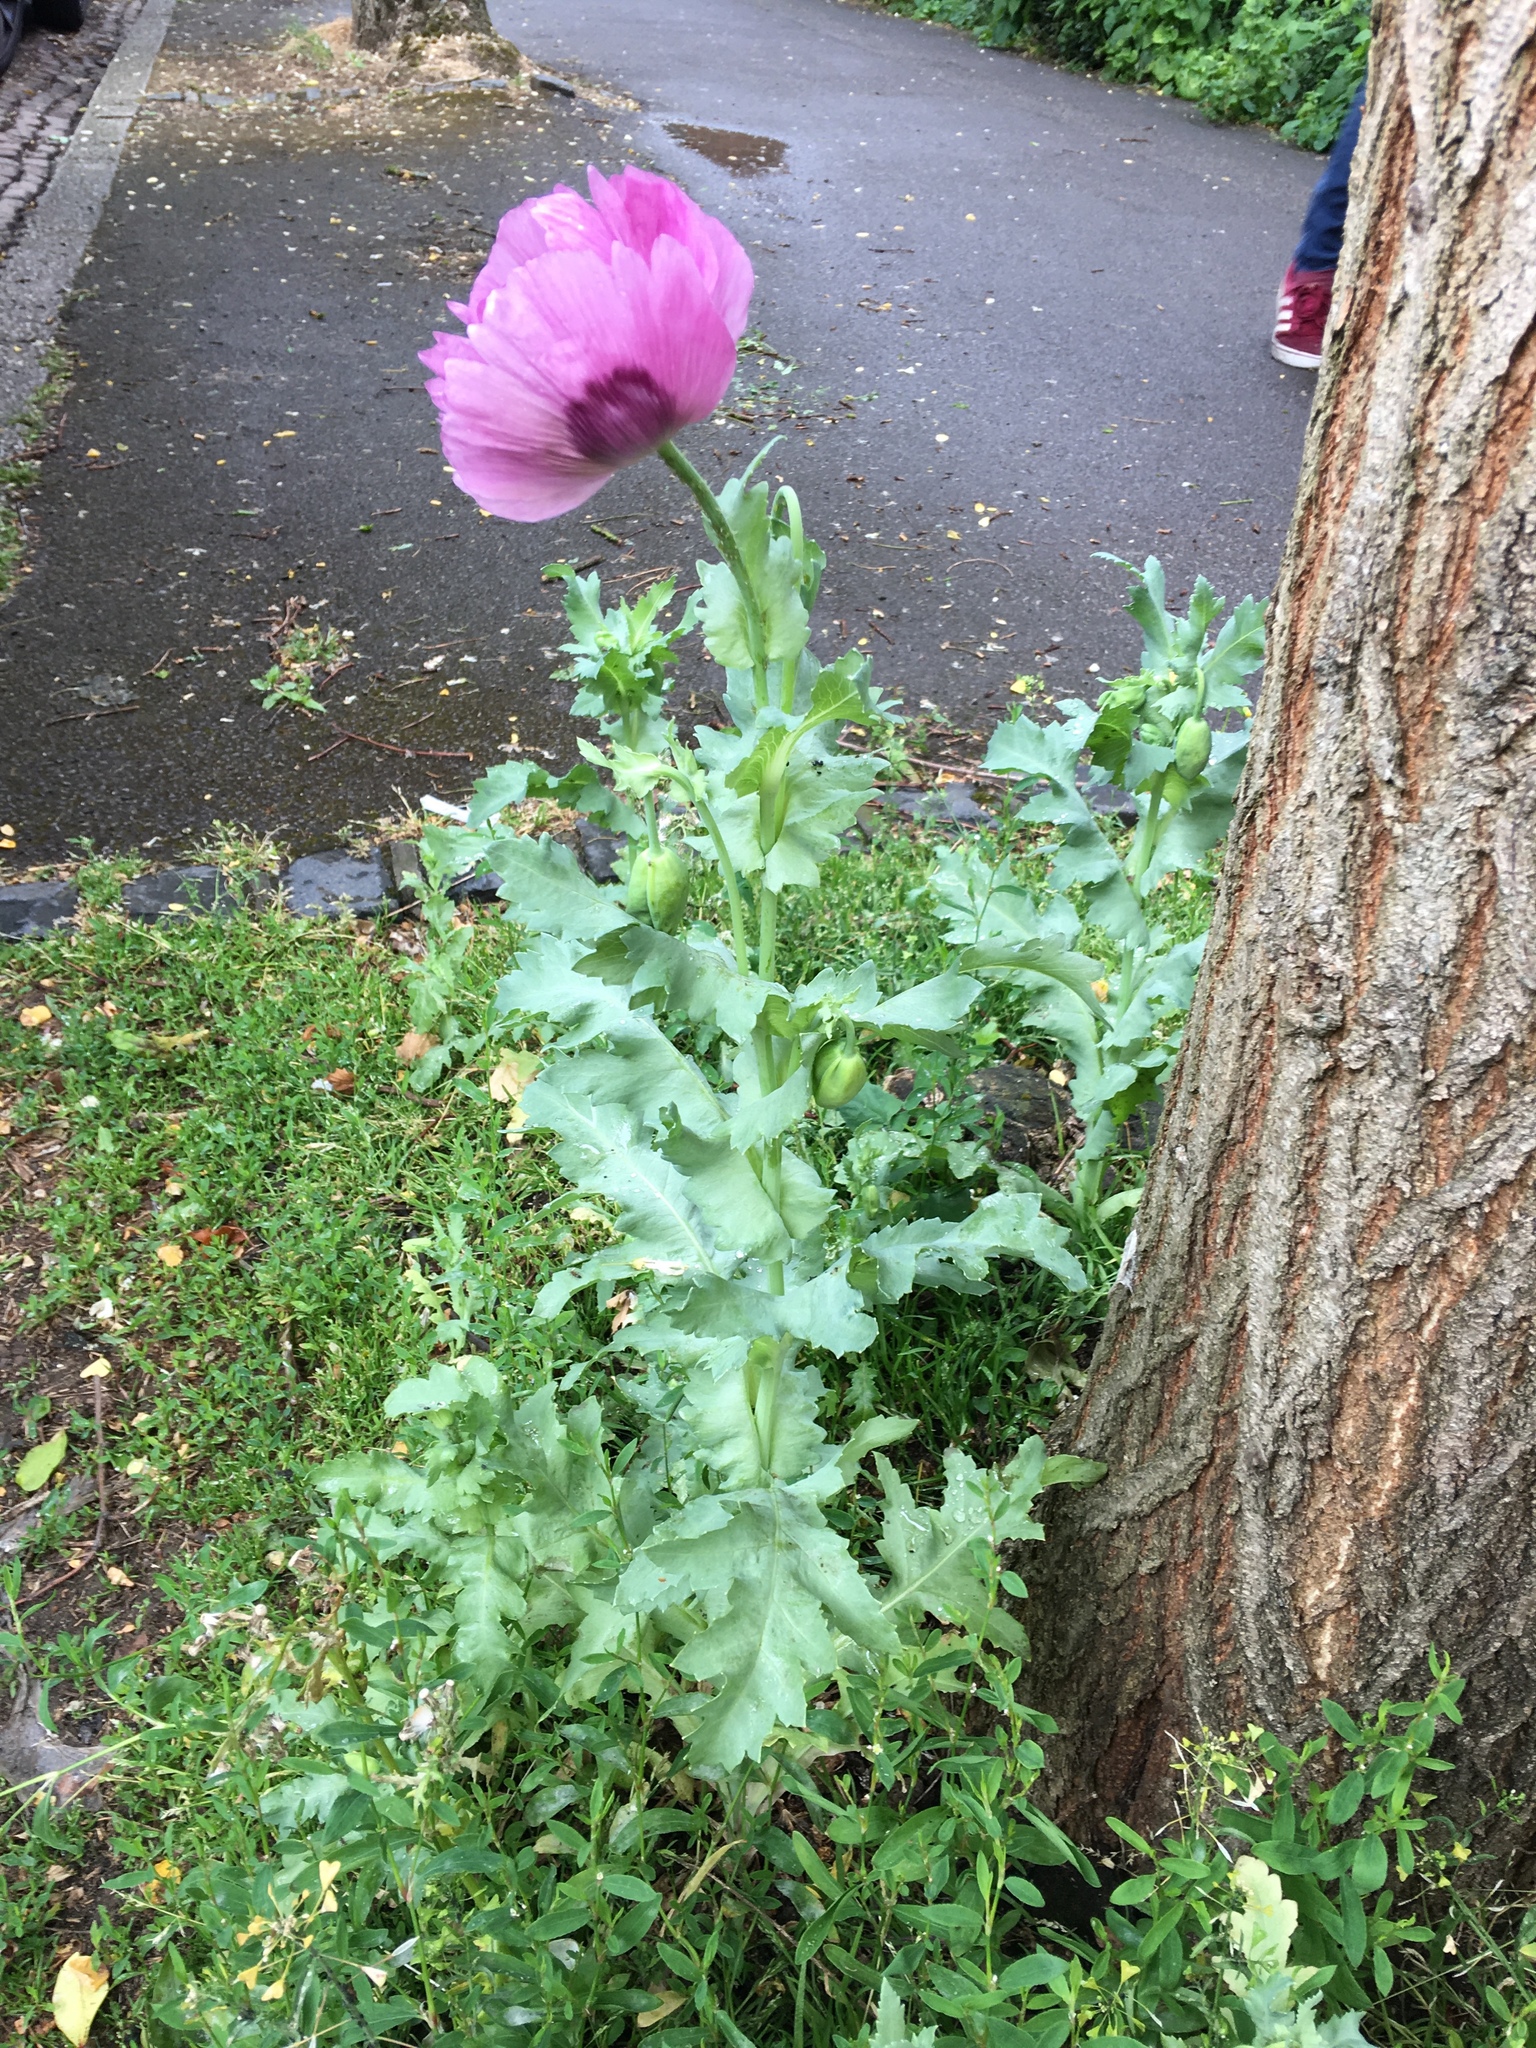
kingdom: Plantae
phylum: Tracheophyta
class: Magnoliopsida
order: Ranunculales
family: Papaveraceae
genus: Papaver
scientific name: Papaver somniferum
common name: Opium poppy
